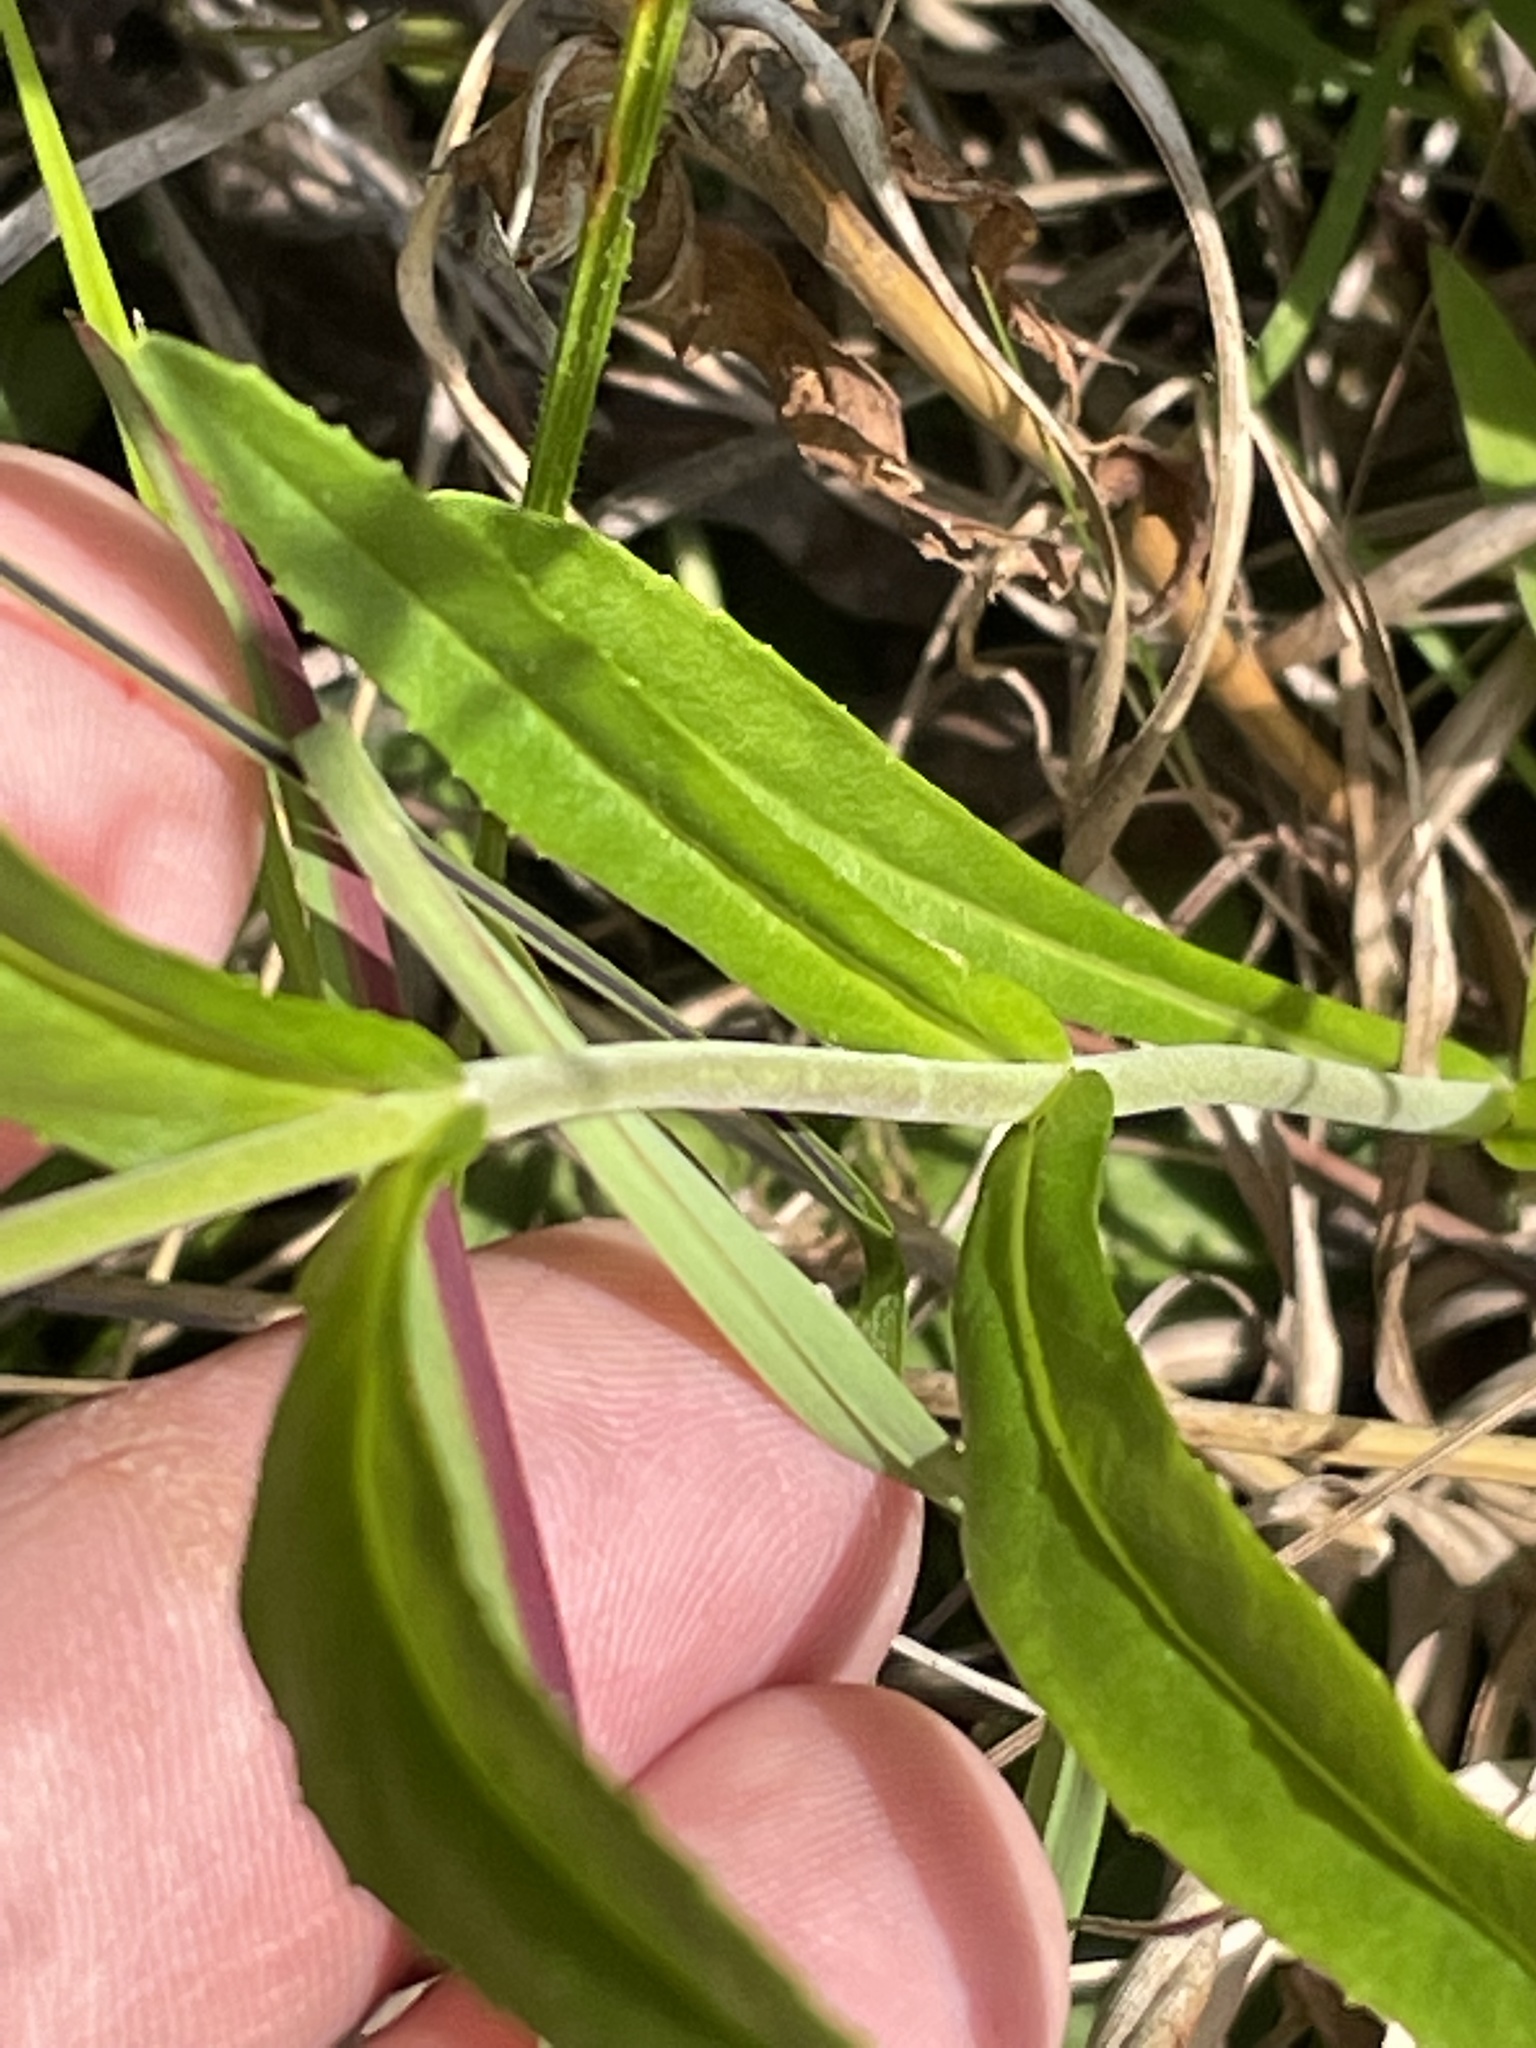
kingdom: Plantae
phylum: Tracheophyta
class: Magnoliopsida
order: Lamiales
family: Plantaginaceae
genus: Penstemon
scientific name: Penstemon laevigatus
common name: Eastern beardtongue
